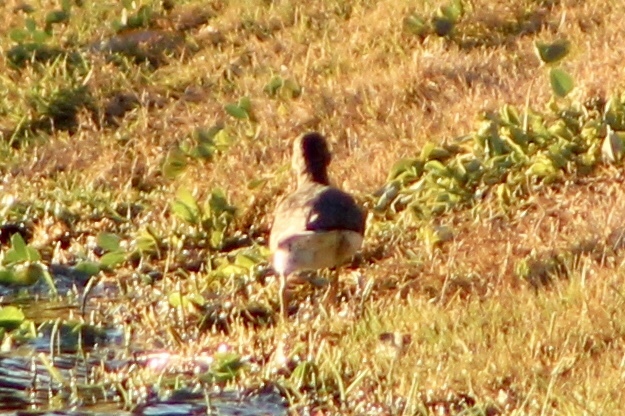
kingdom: Animalia
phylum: Chordata
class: Aves
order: Charadriiformes
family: Scolopacidae
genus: Actitis
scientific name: Actitis macularius
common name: Spotted sandpiper
